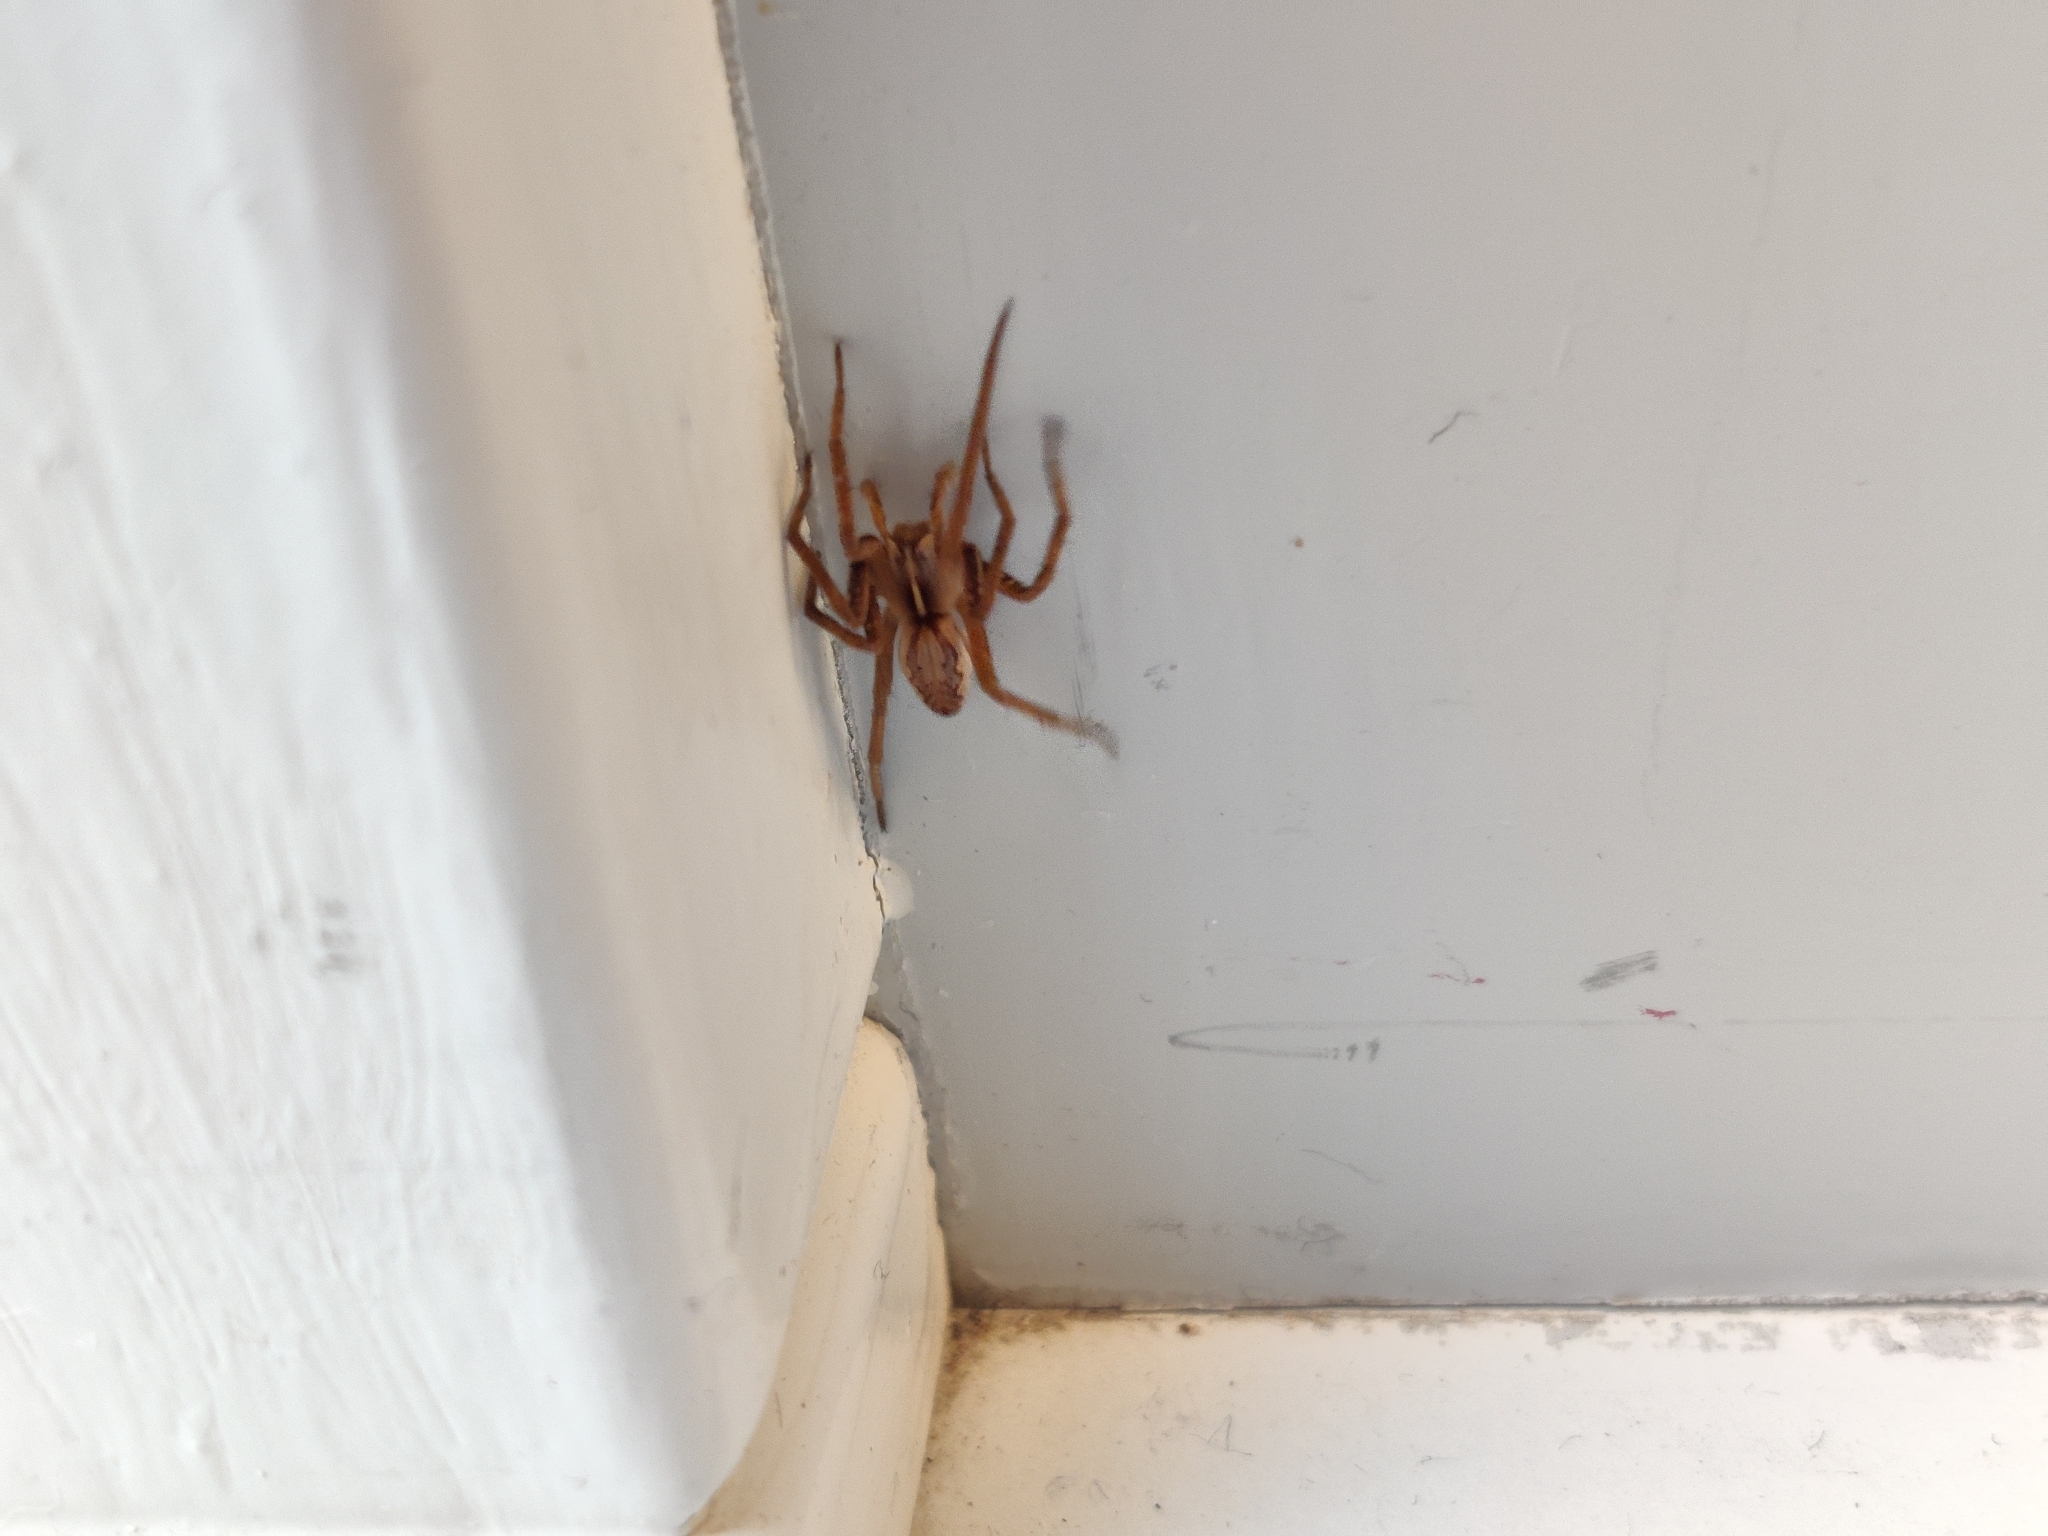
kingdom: Animalia
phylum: Arthropoda
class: Arachnida
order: Araneae
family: Pisauridae
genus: Pisaura
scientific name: Pisaura mirabilis
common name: Tent spider
